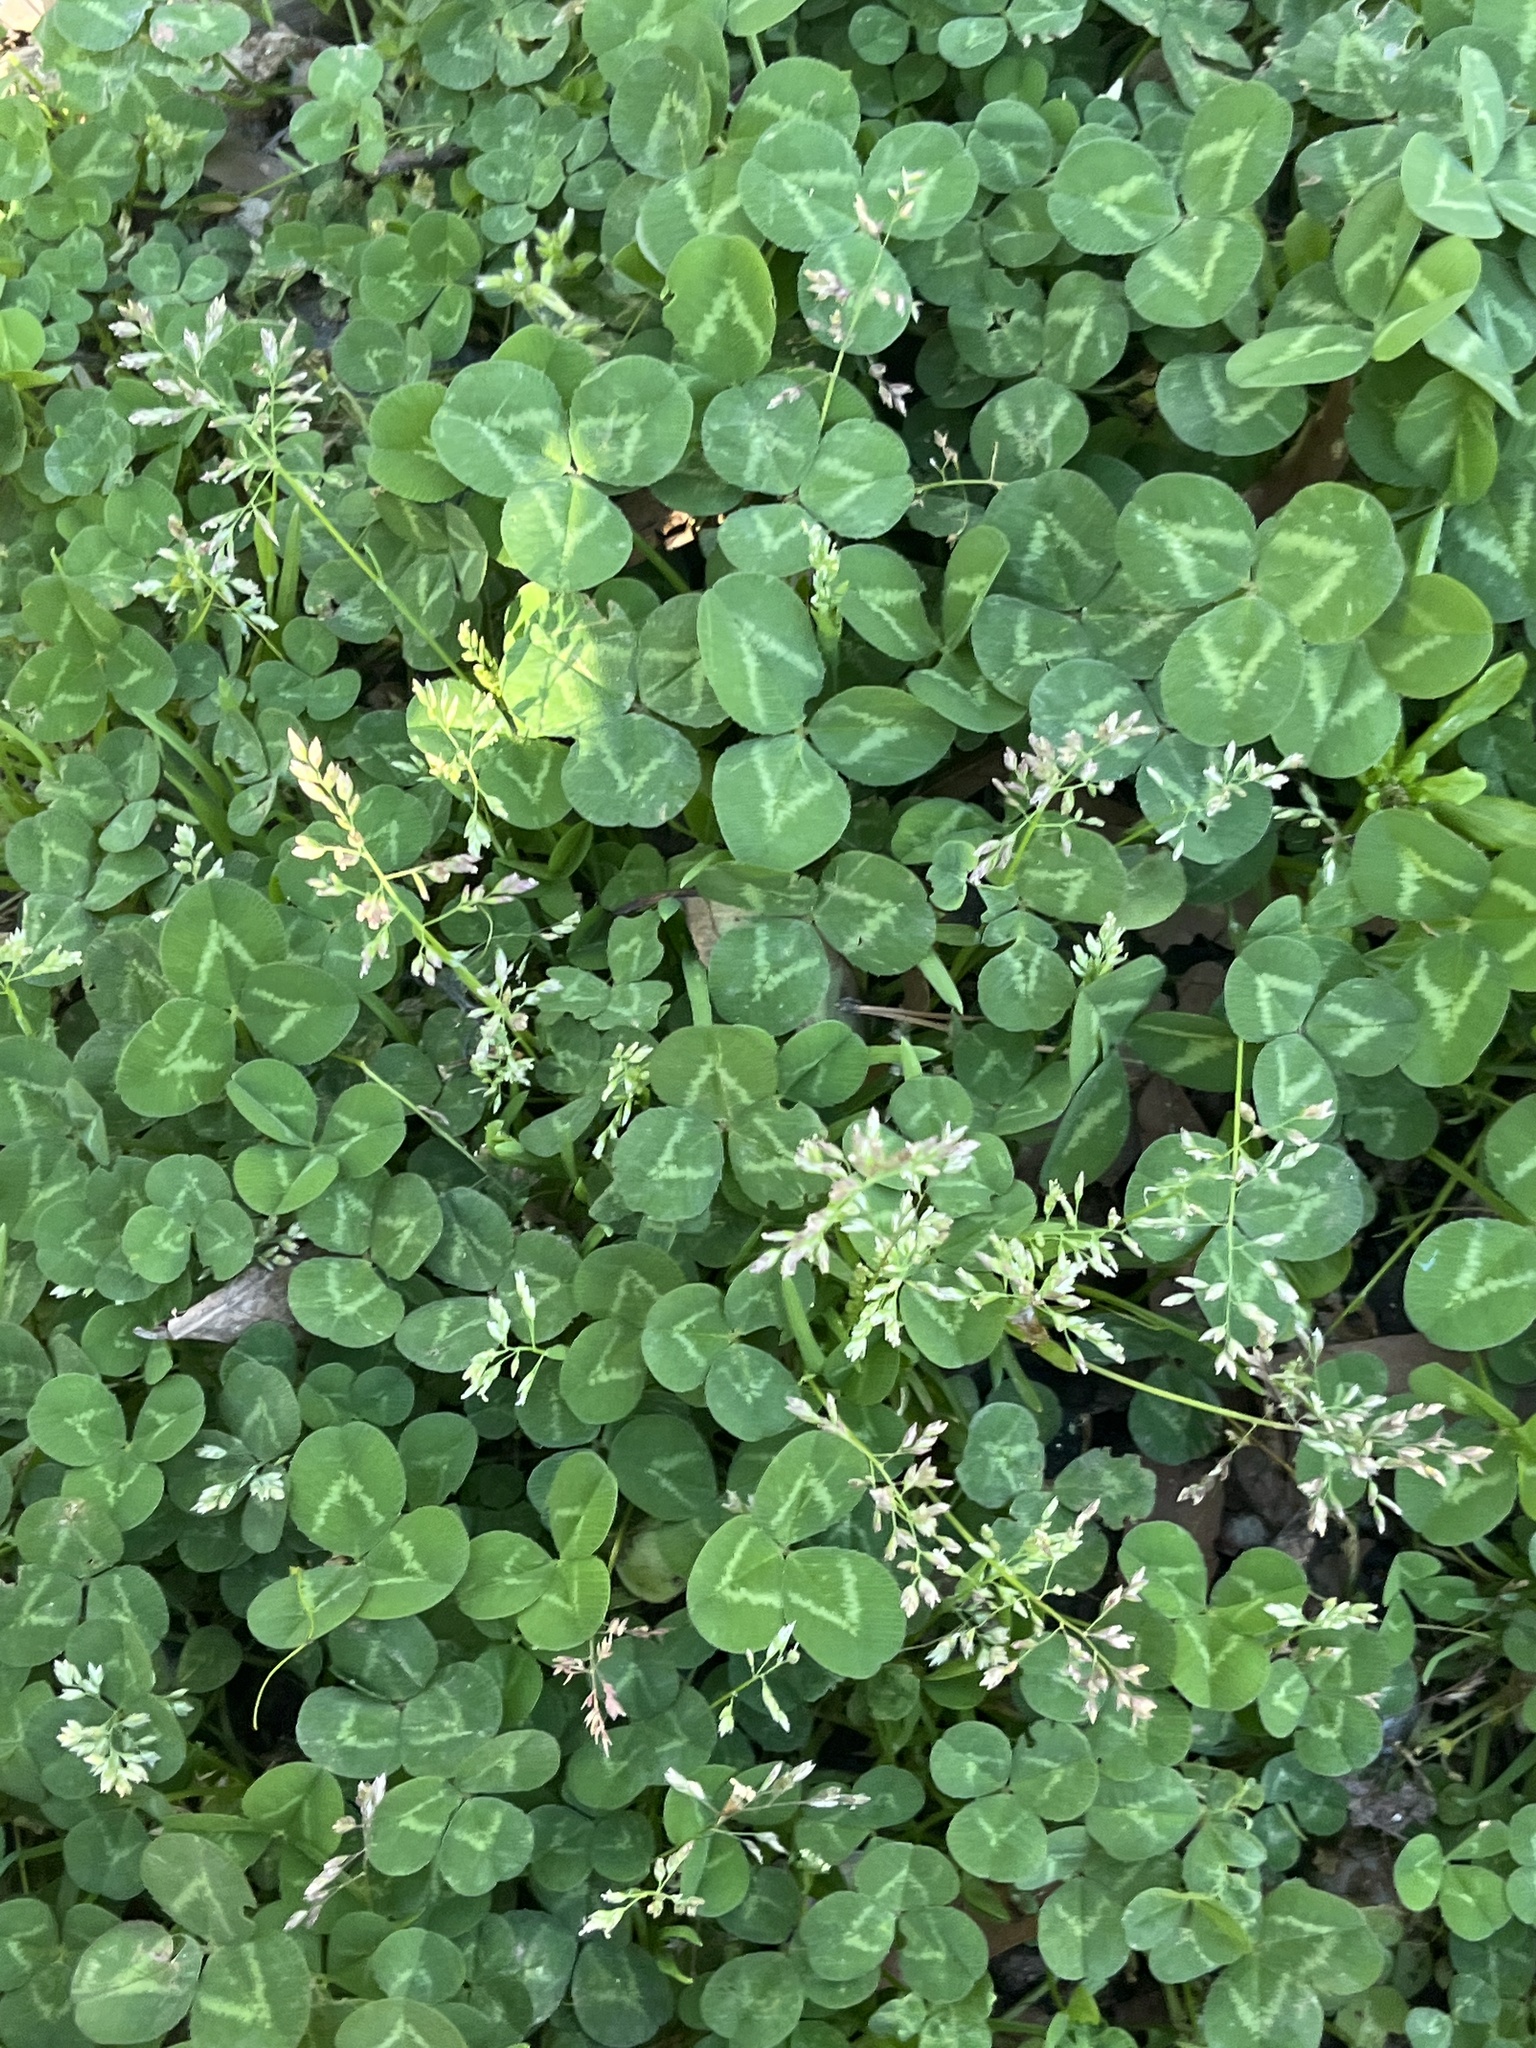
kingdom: Plantae
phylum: Tracheophyta
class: Magnoliopsida
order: Fabales
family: Fabaceae
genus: Trifolium
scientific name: Trifolium repens
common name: White clover
